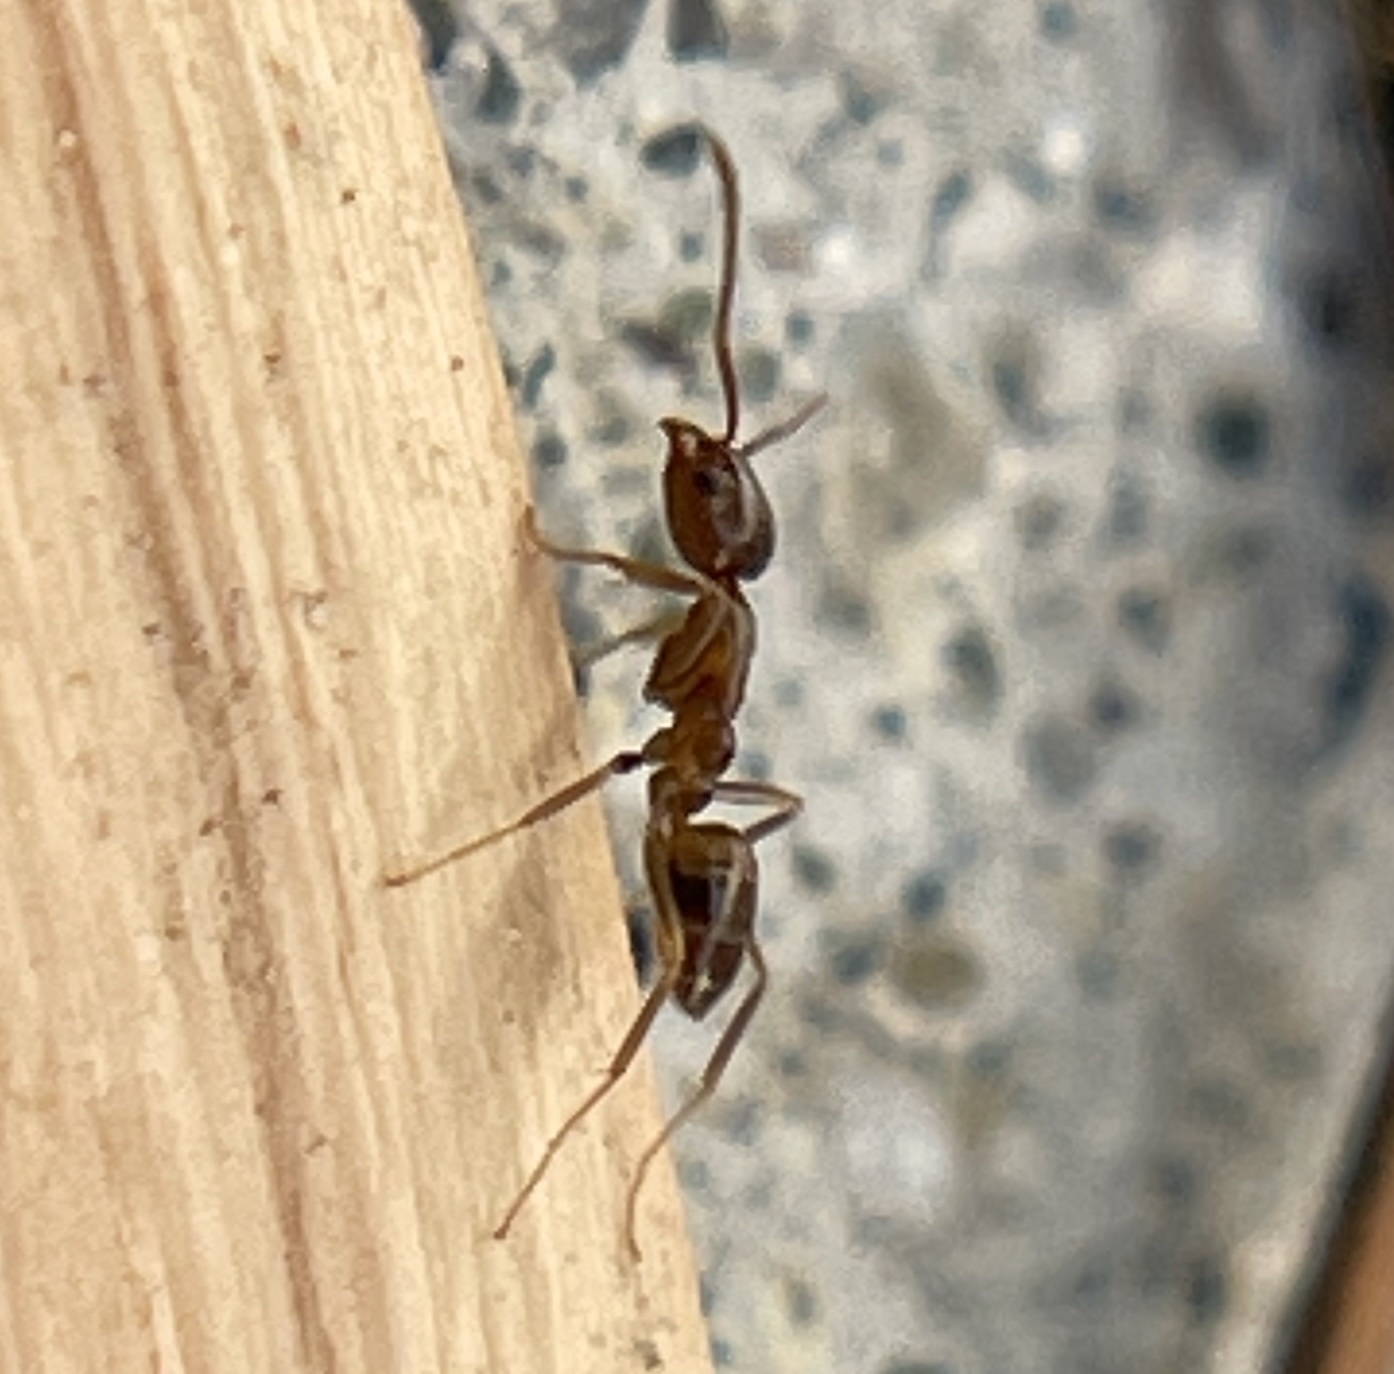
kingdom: Animalia
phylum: Arthropoda
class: Insecta
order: Hymenoptera
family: Formicidae
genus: Linepithema
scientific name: Linepithema humile
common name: Argentine ant
